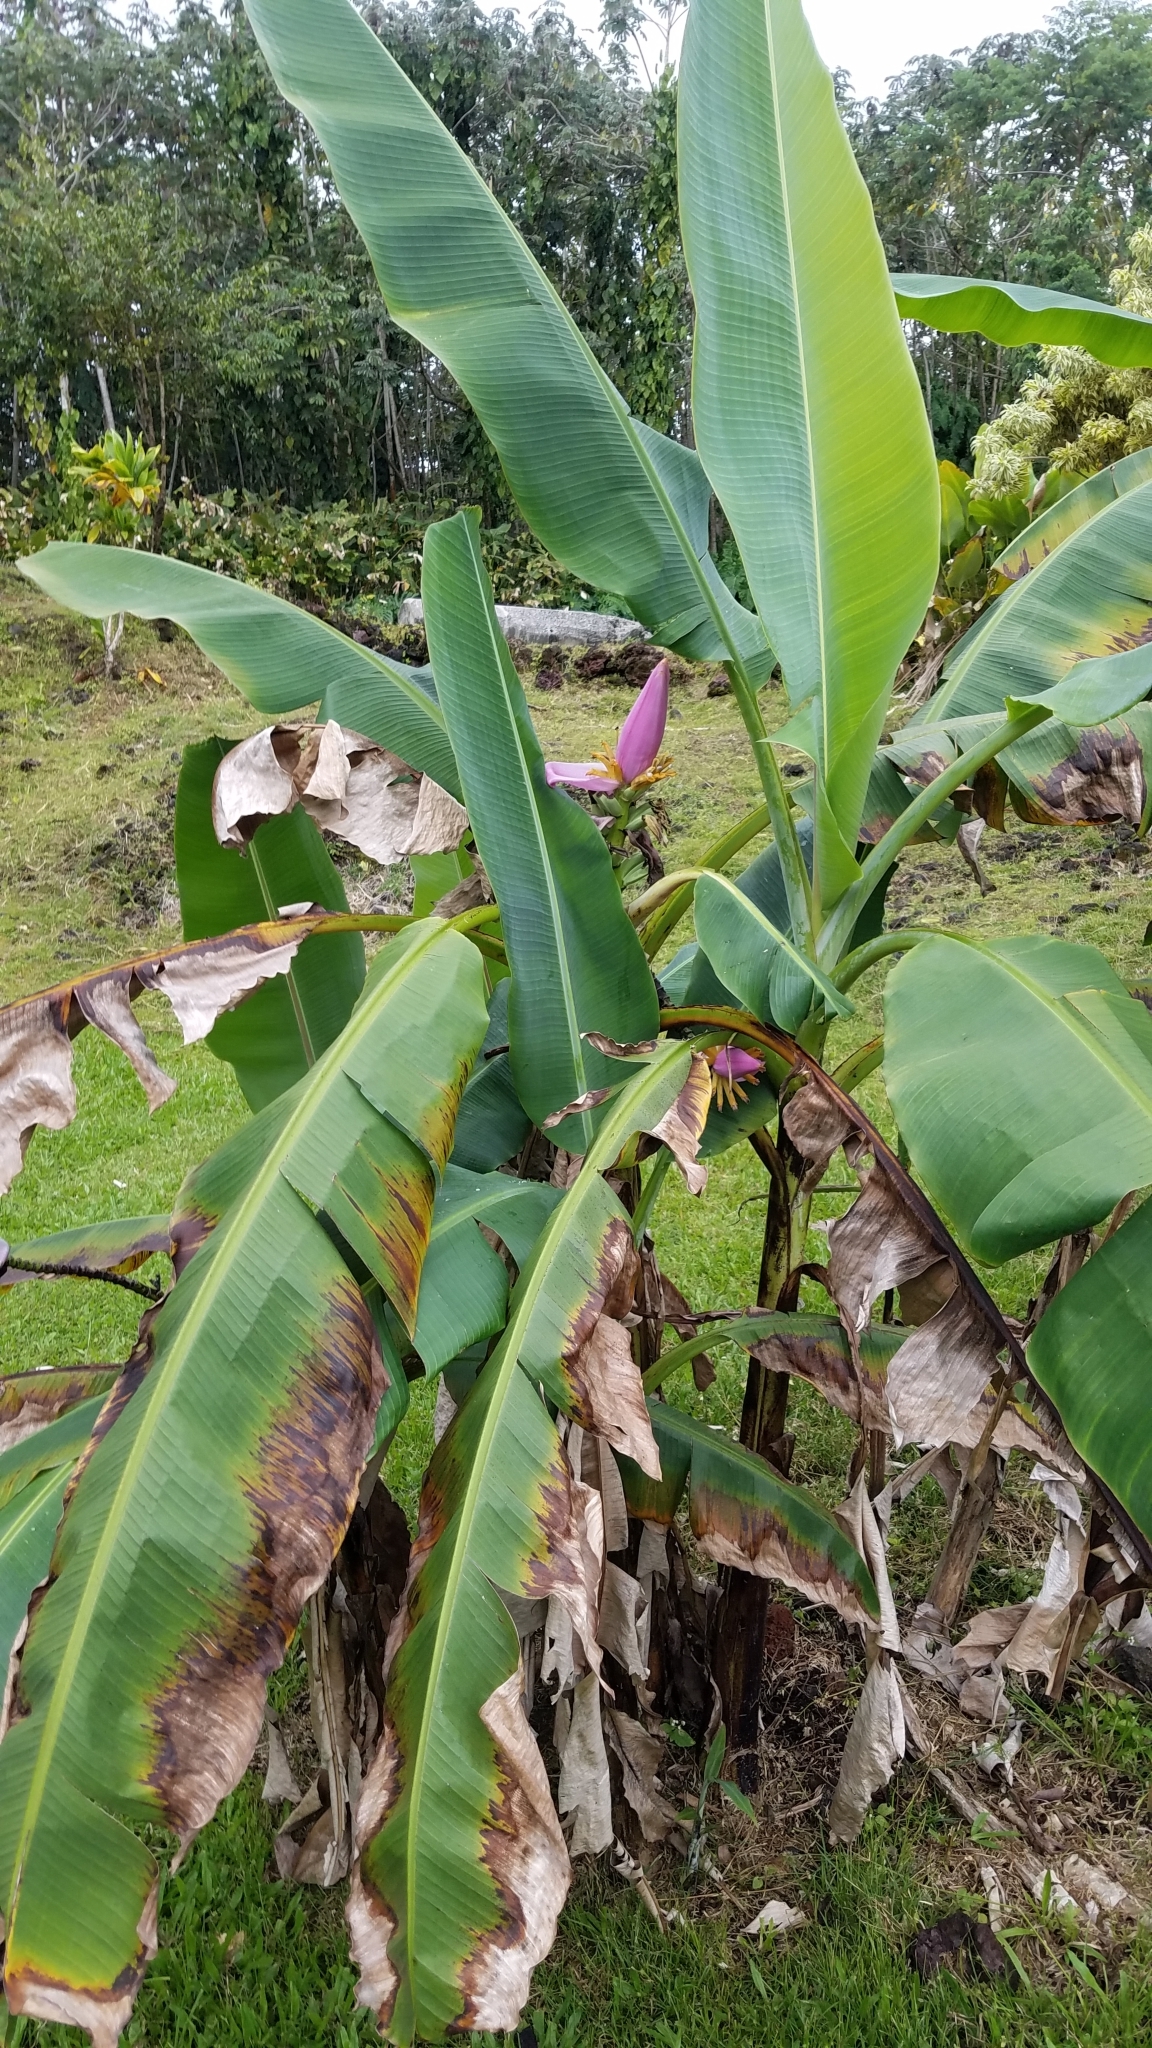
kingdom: Plantae
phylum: Tracheophyta
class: Liliopsida
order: Zingiberales
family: Musaceae
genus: Musa
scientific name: Musa ornata
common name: Flowering banana
